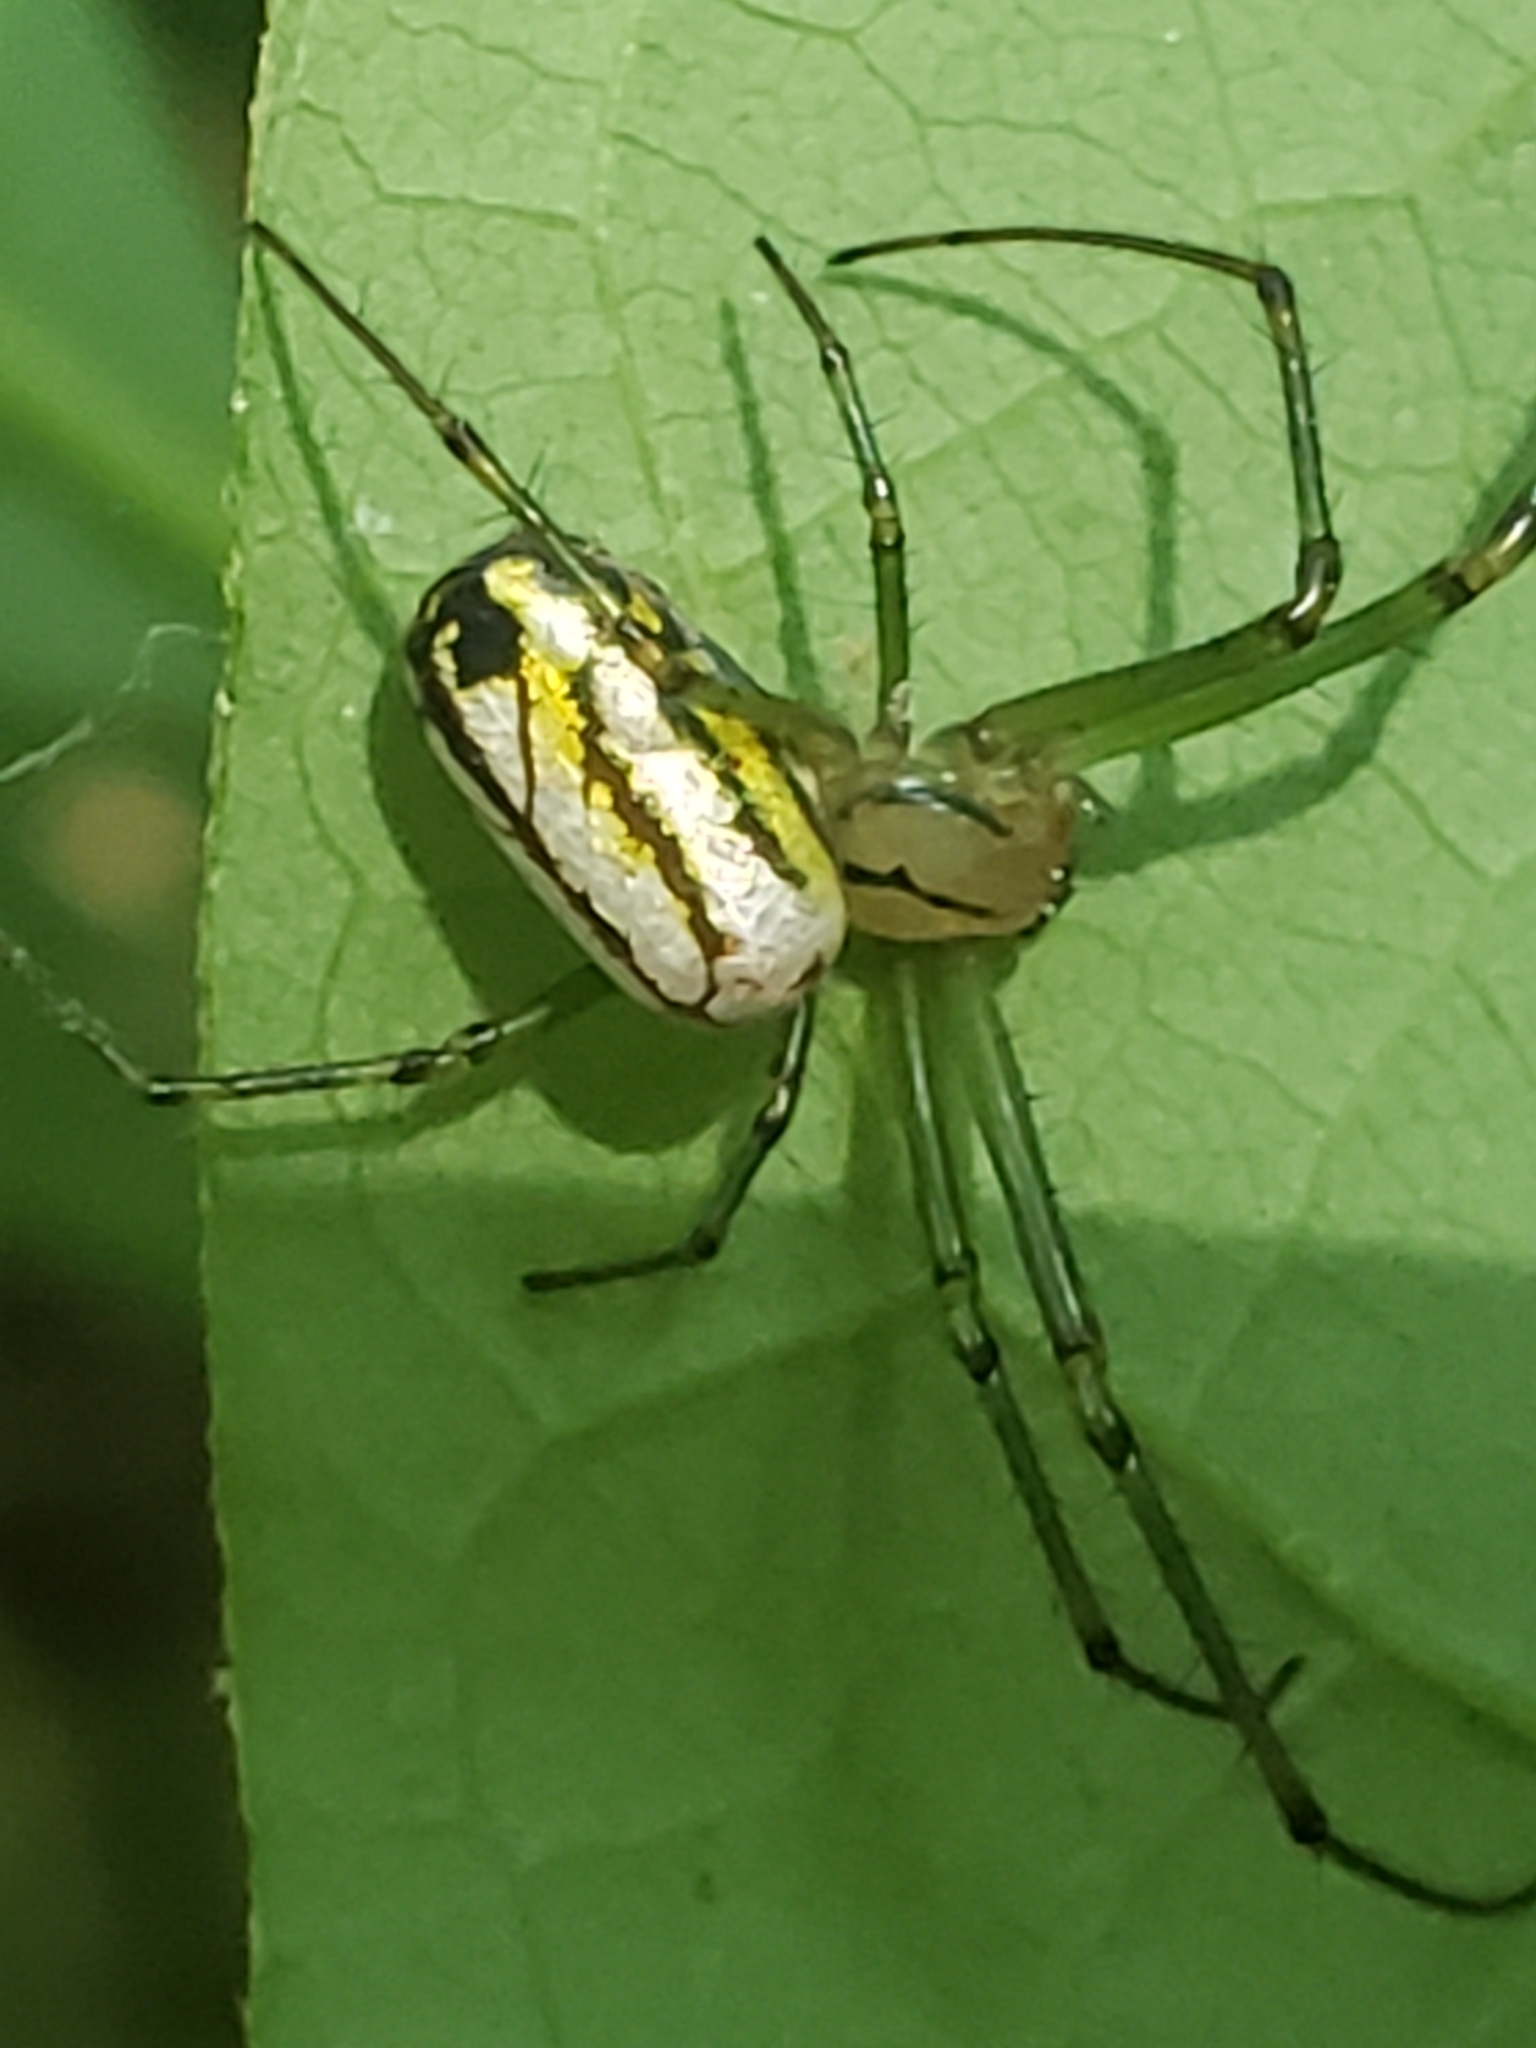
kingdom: Animalia
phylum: Arthropoda
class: Arachnida
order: Araneae
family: Tetragnathidae
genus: Leucauge
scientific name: Leucauge venusta
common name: Longjawed orb weavers
